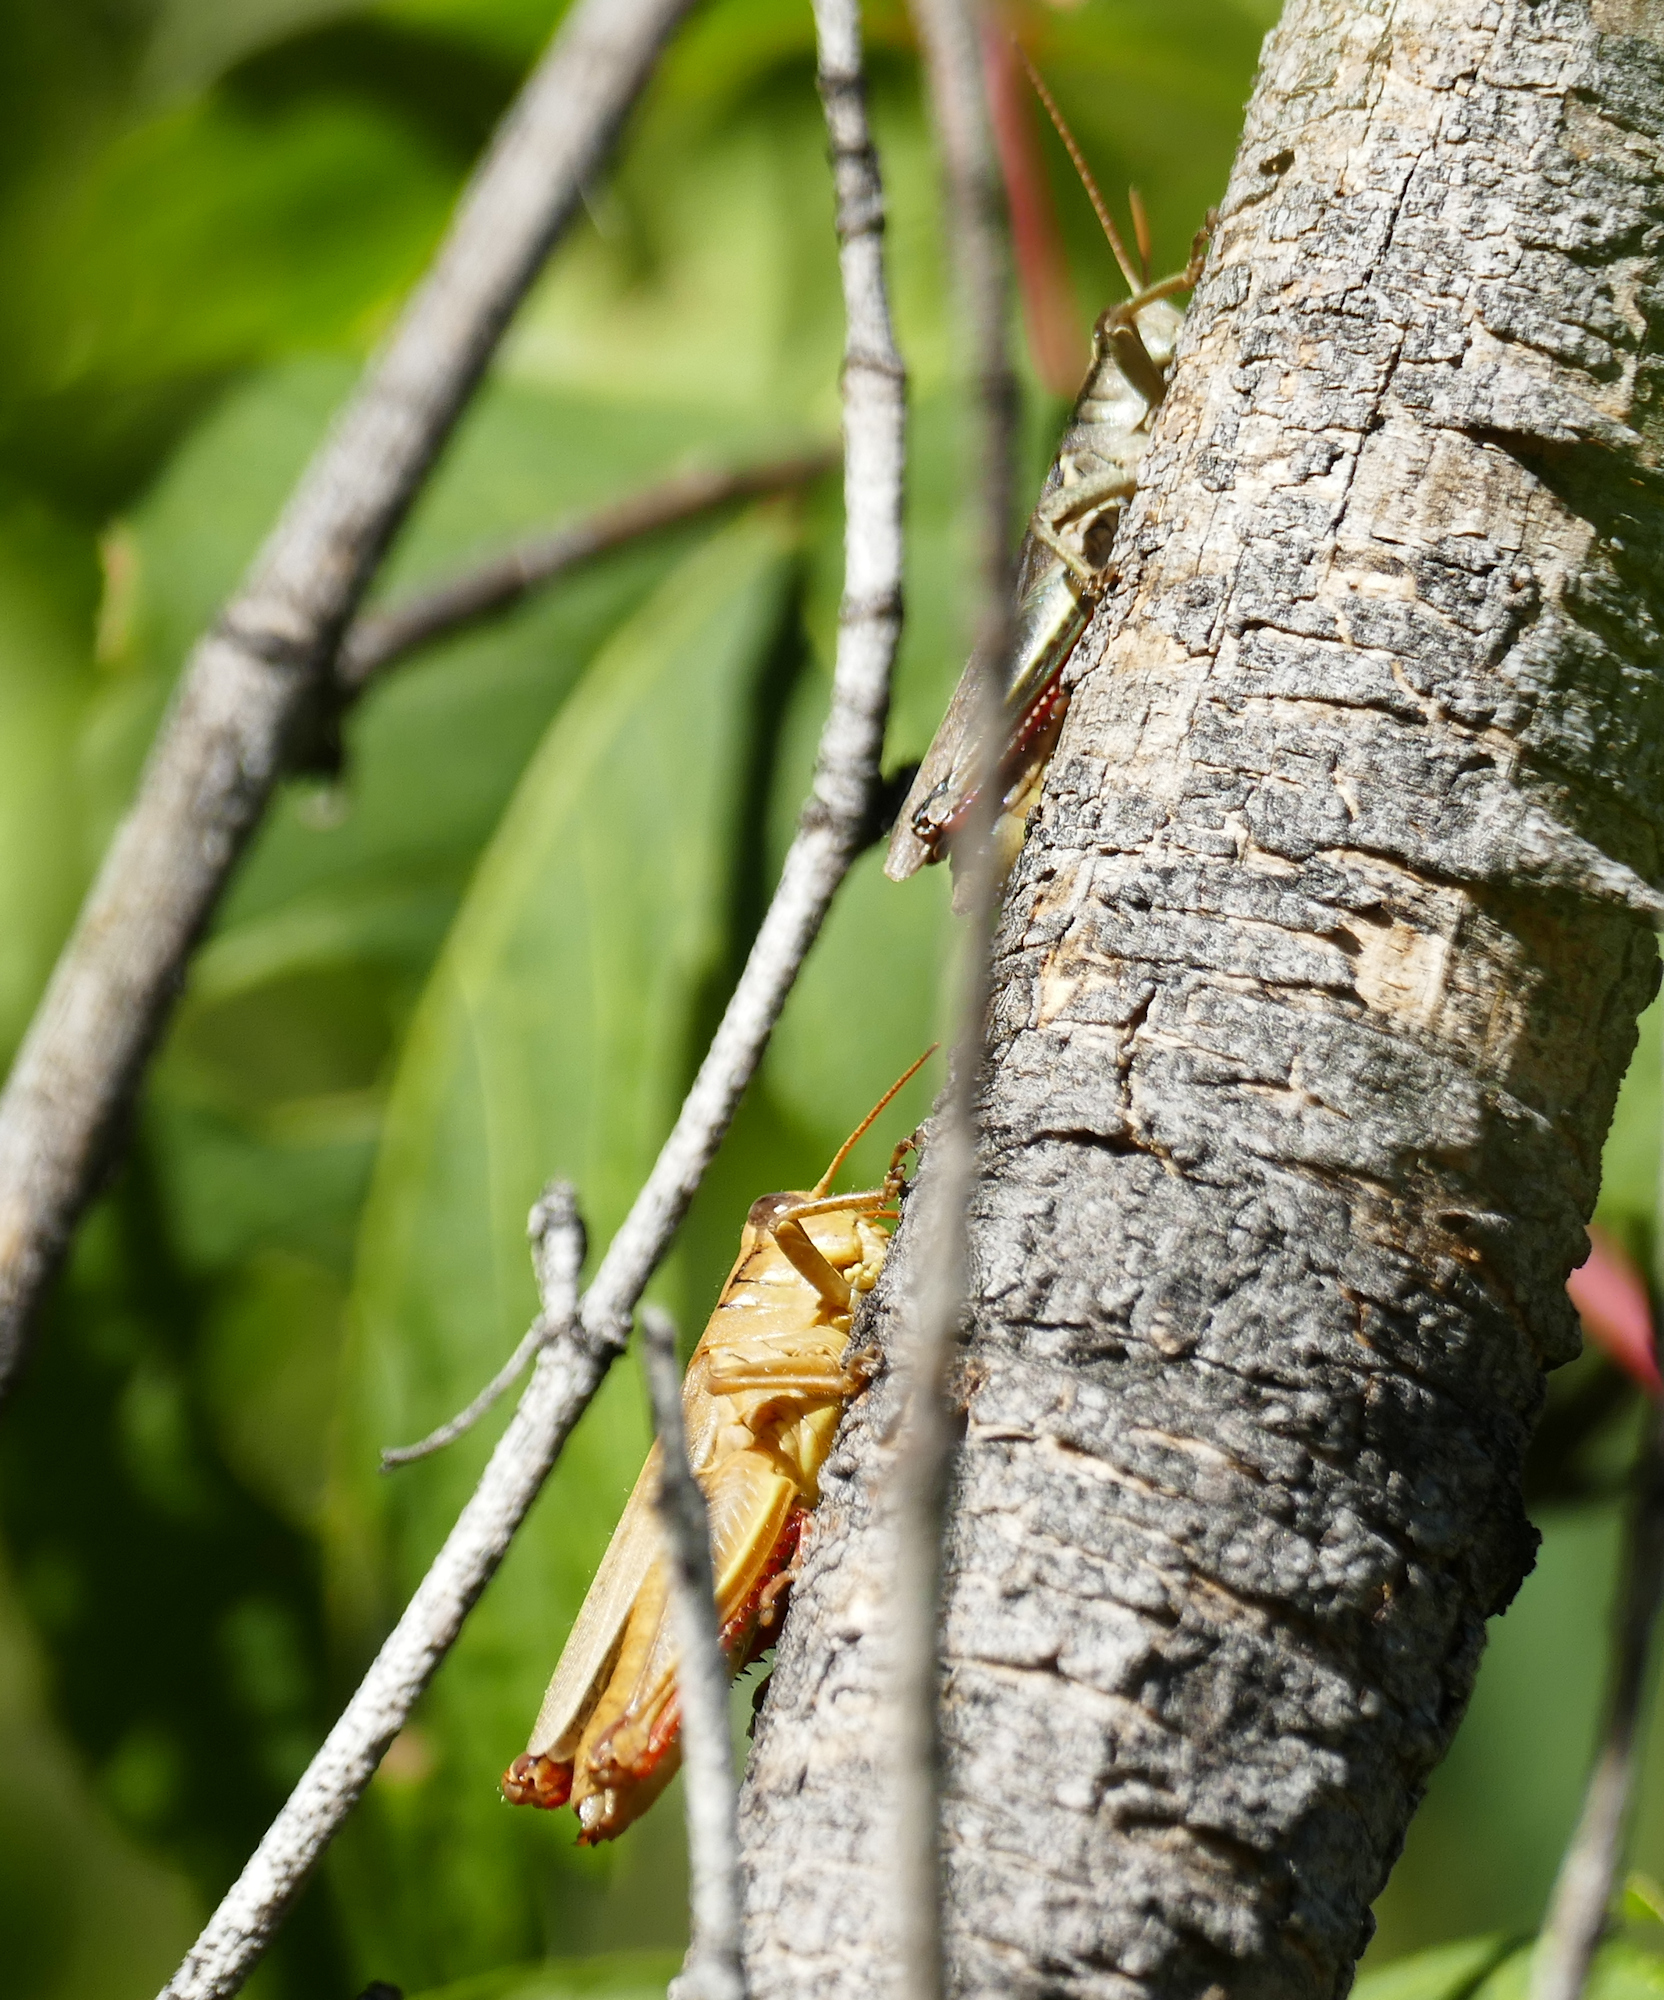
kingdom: Animalia
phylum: Arthropoda
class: Insecta
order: Orthoptera
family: Acrididae
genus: Melanoplus
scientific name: Melanoplus yarrowii
